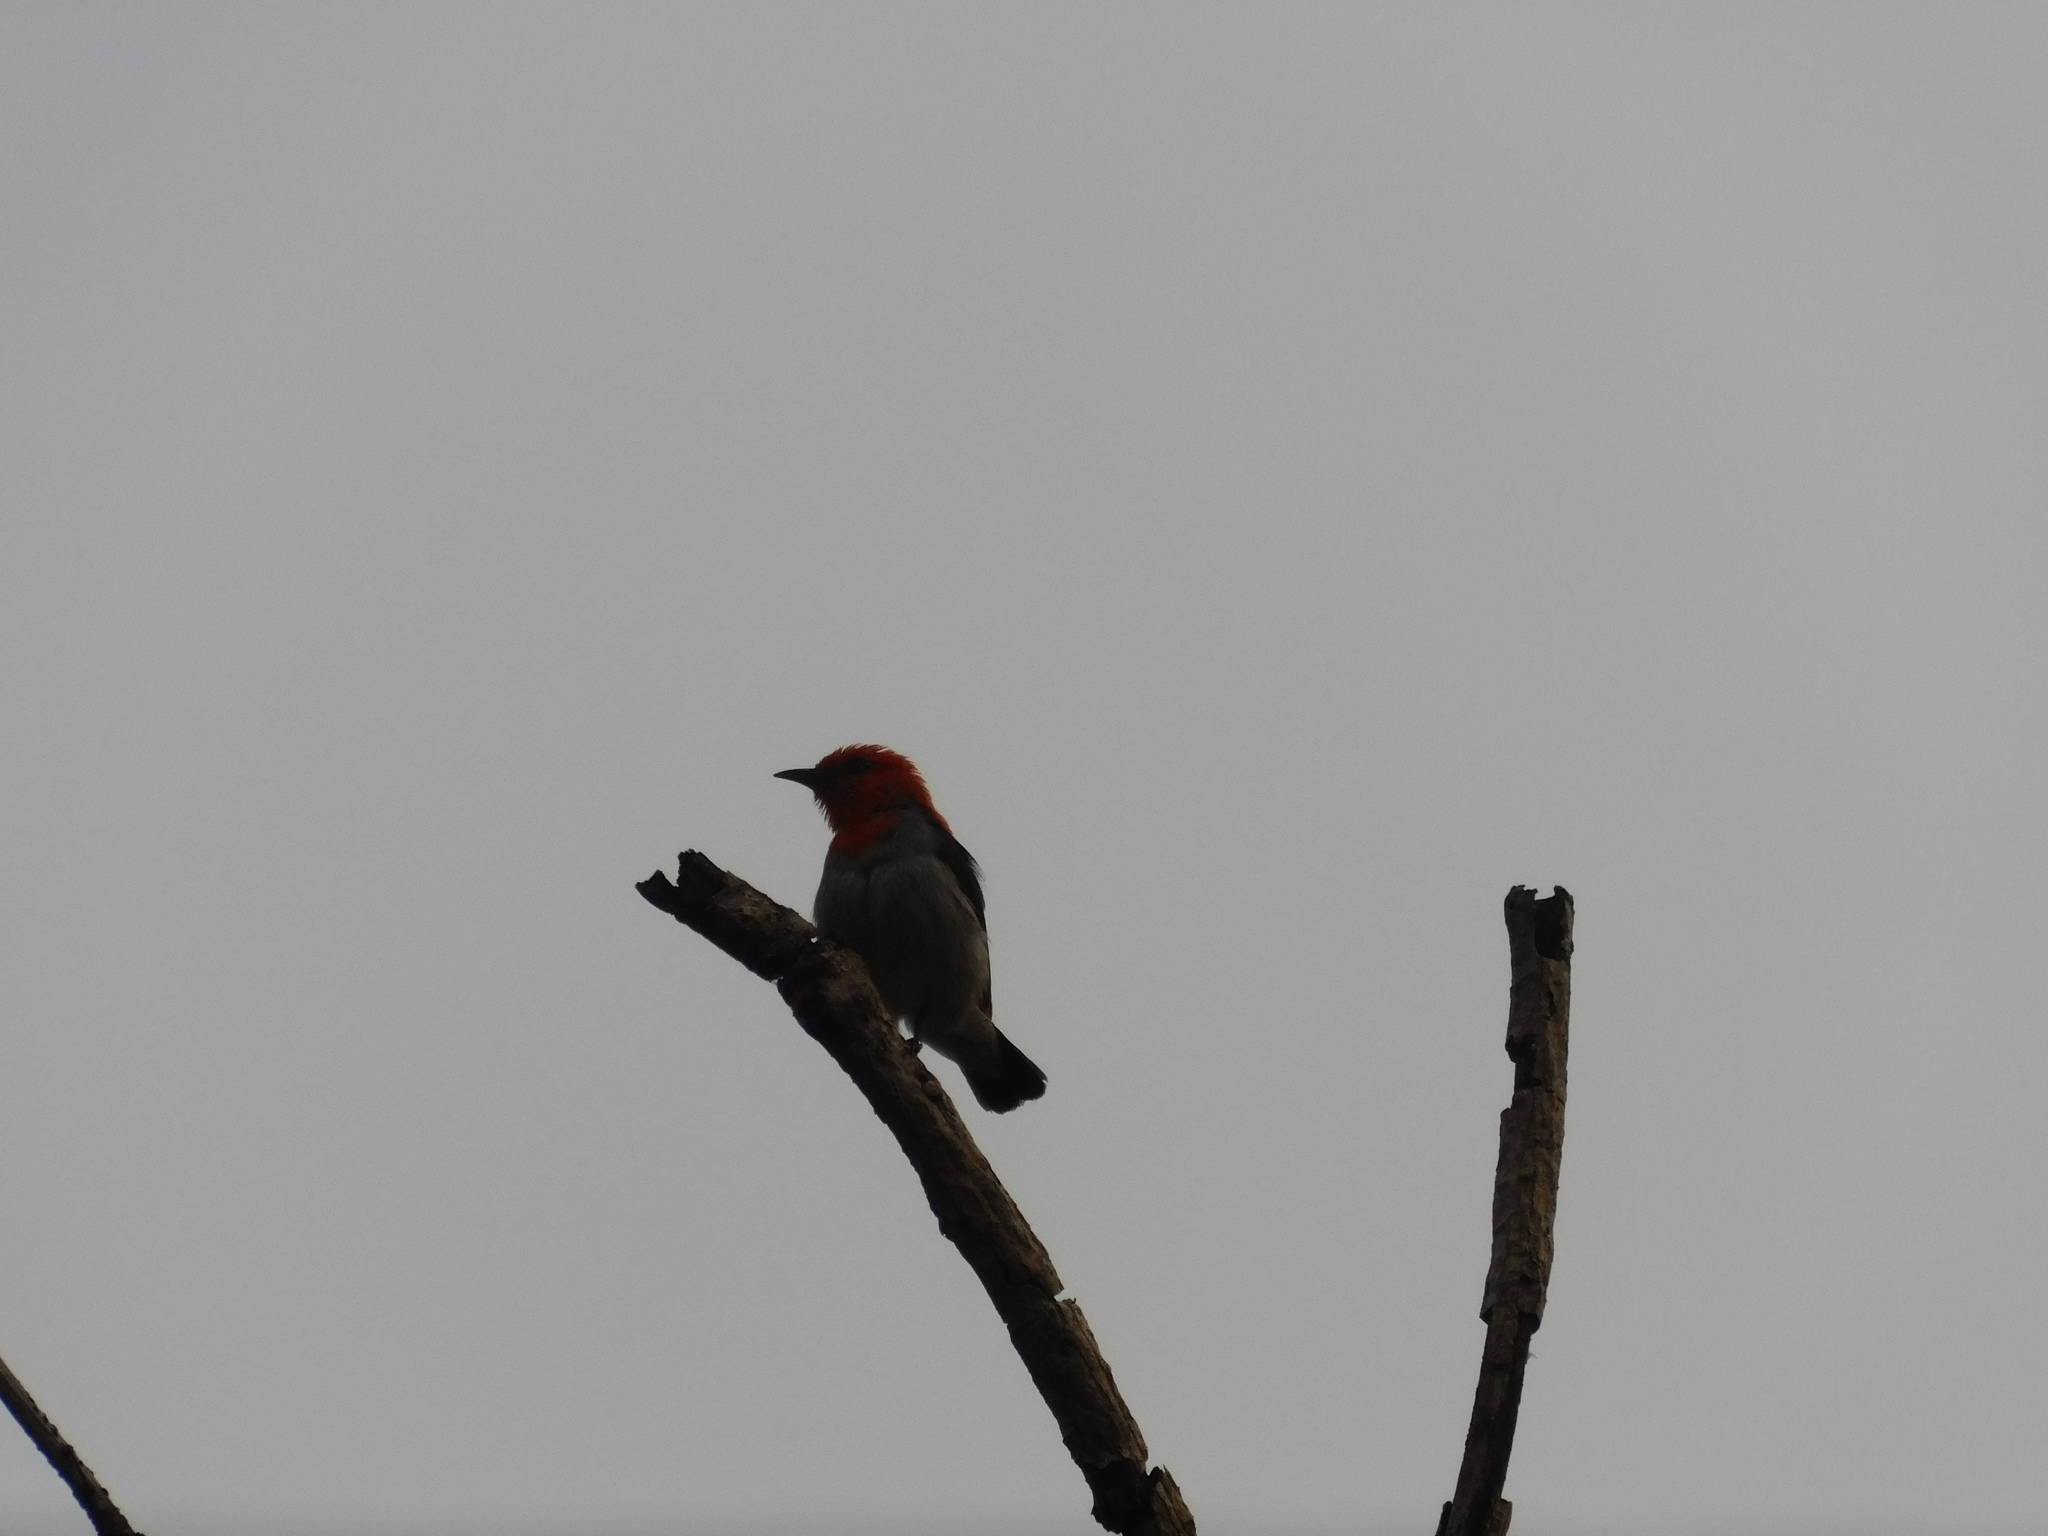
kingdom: Animalia
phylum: Chordata
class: Aves
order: Passeriformes
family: Dicaeidae
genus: Dicaeum
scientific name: Dicaeum trochileum
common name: Scarlet-headed flowerpecker
